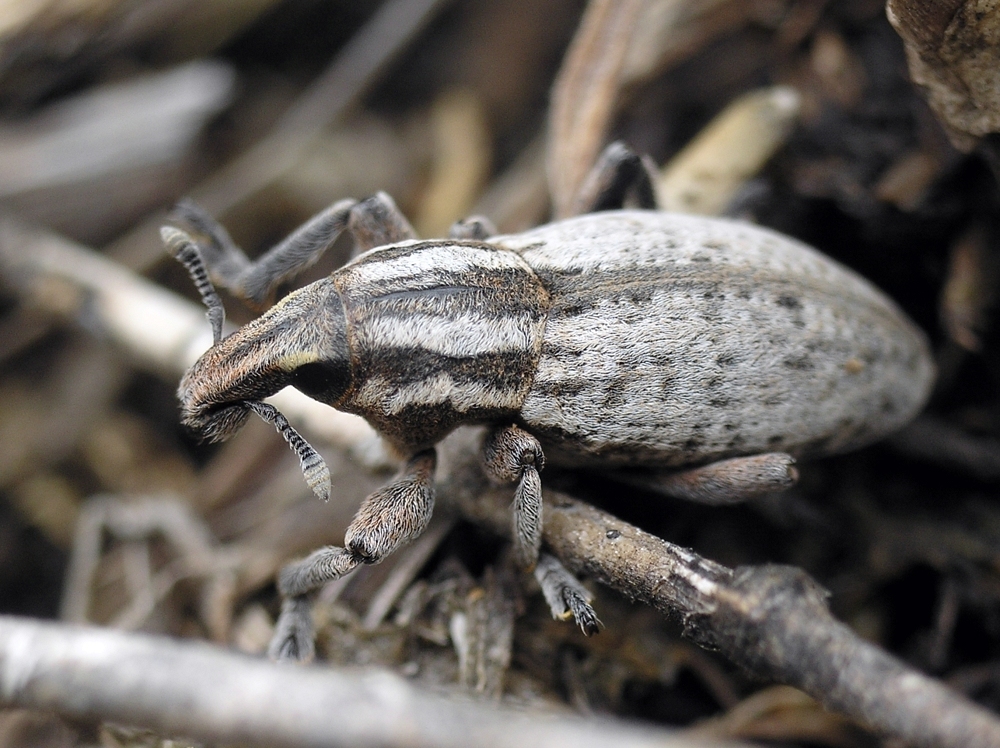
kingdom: Animalia
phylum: Arthropoda
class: Insecta
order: Coleoptera
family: Curculionidae
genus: Pseudocleonus
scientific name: Pseudocleonus cinereus
